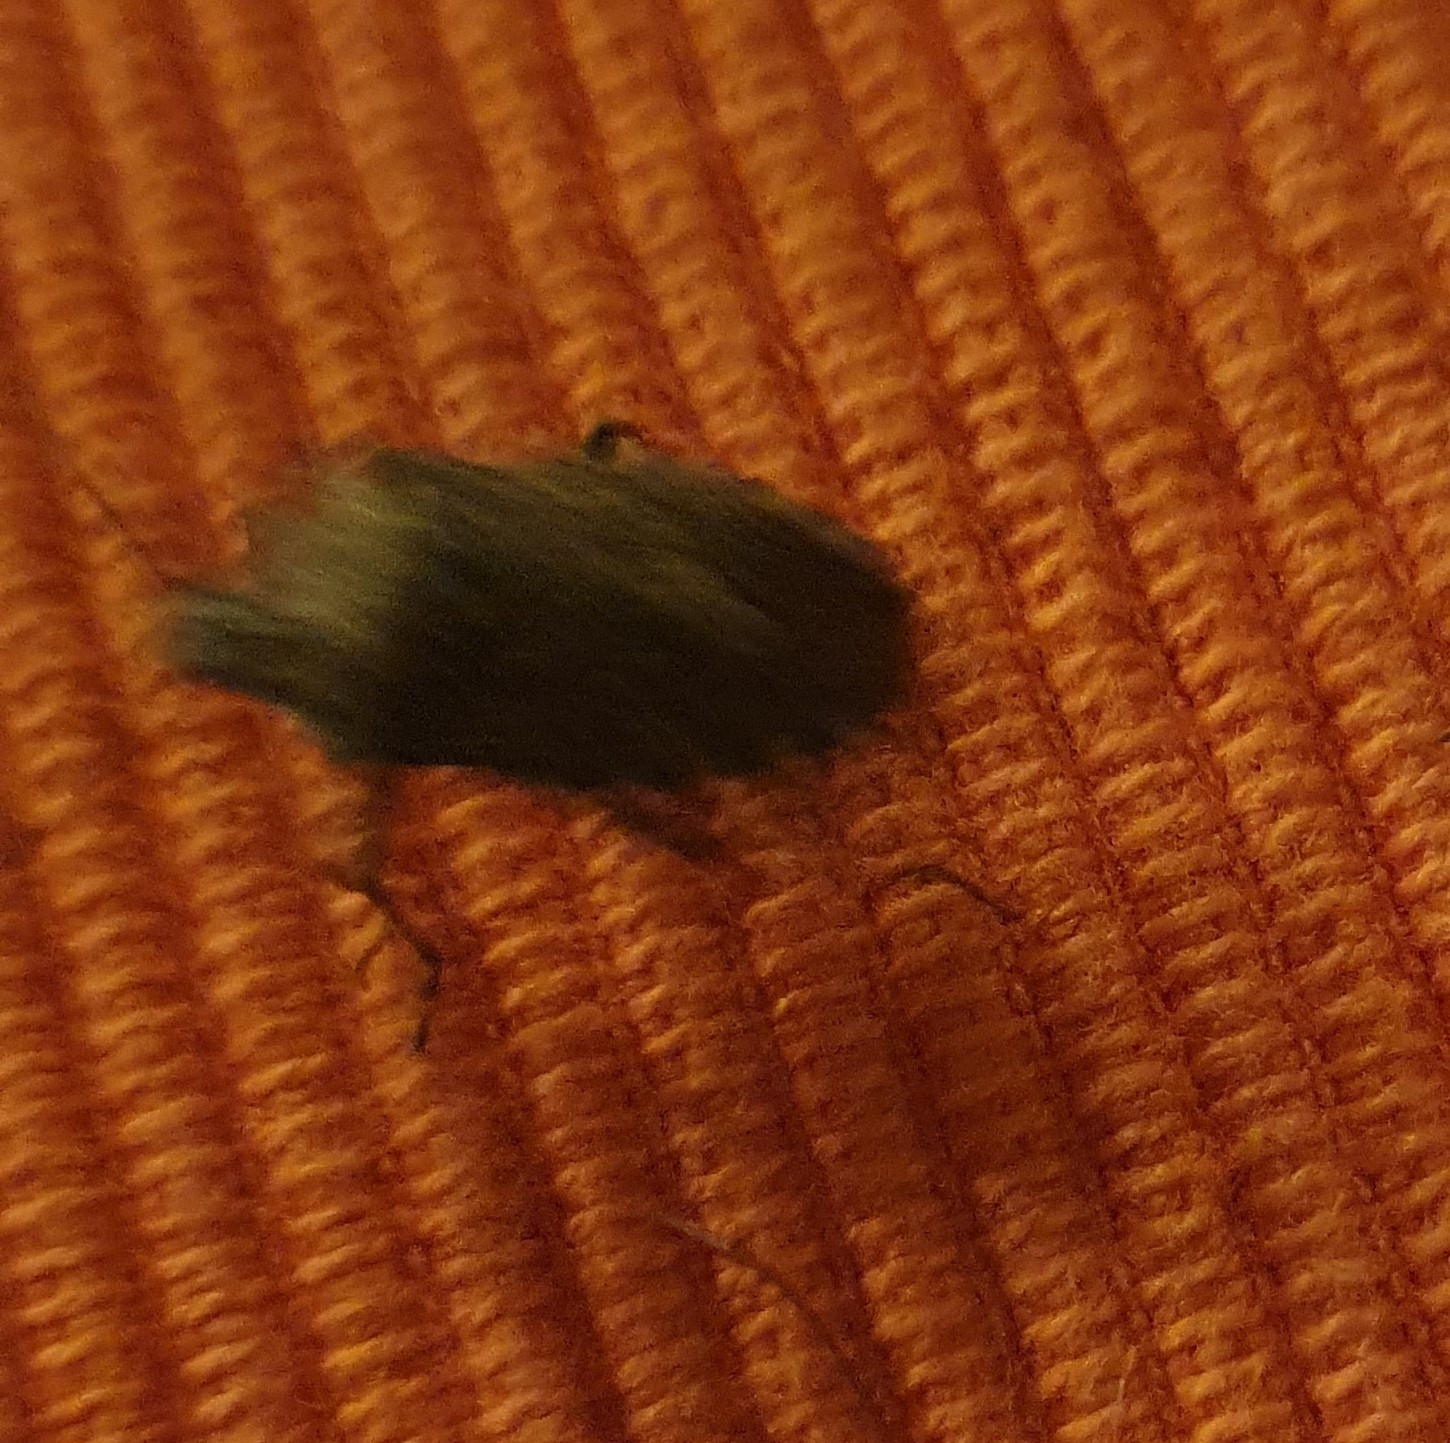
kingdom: Animalia
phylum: Arthropoda
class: Insecta
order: Hemiptera
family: Pentatomidae
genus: Rhaphigaster
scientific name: Rhaphigaster nebulosa
